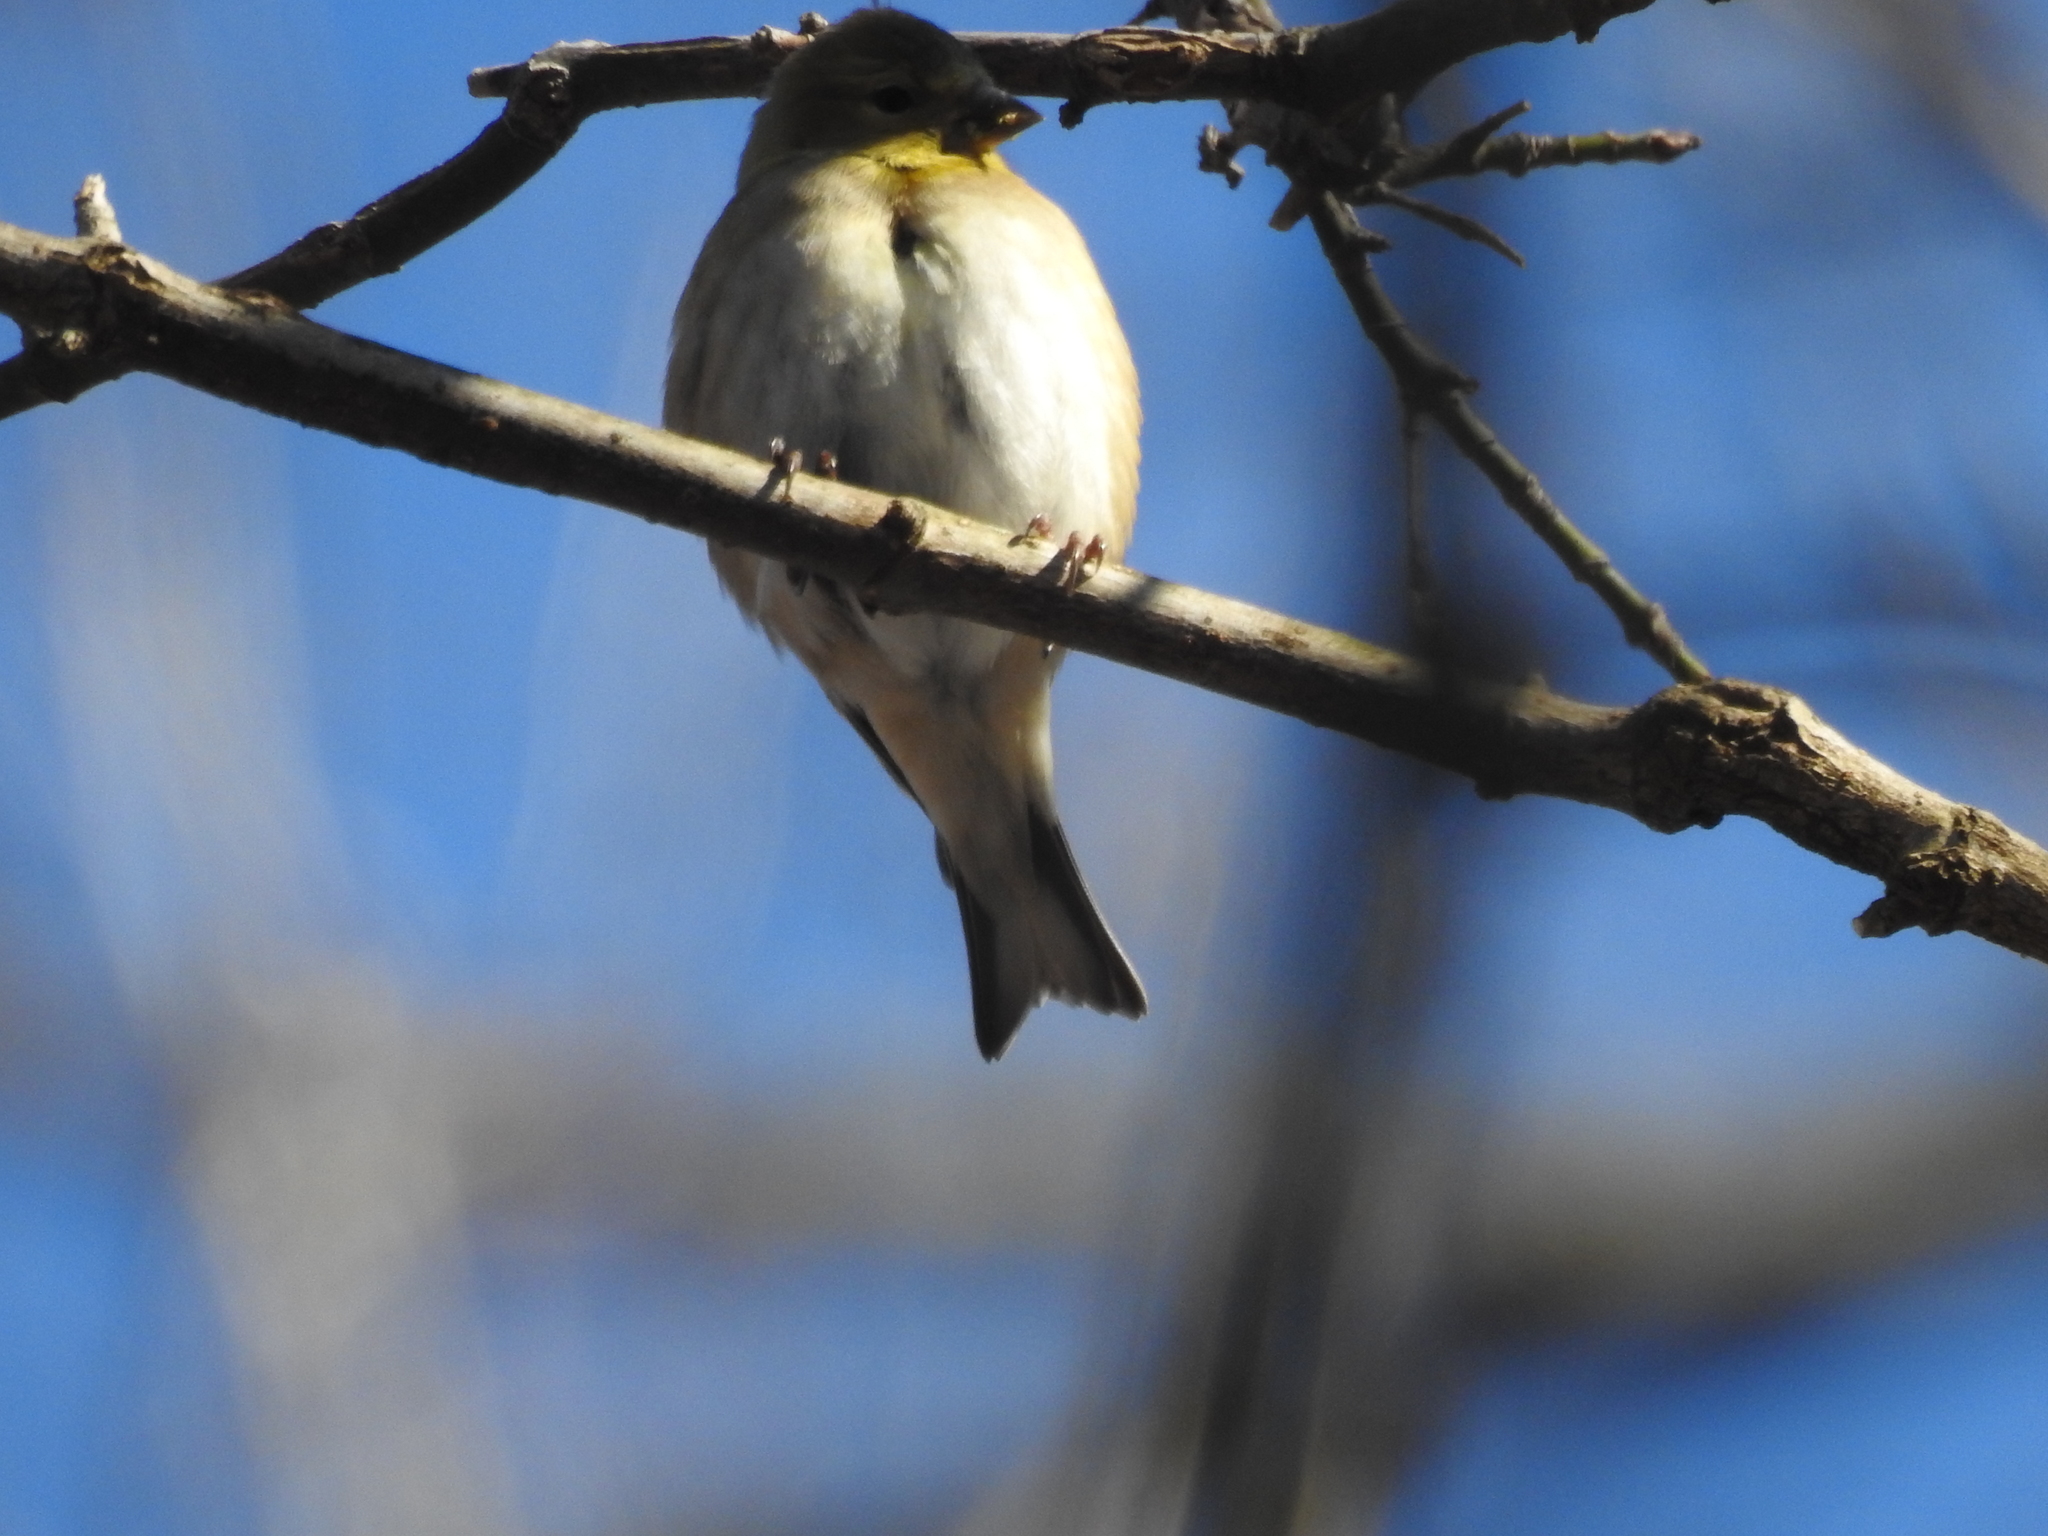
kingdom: Animalia
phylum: Chordata
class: Aves
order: Passeriformes
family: Fringillidae
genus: Spinus
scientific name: Spinus tristis
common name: American goldfinch
